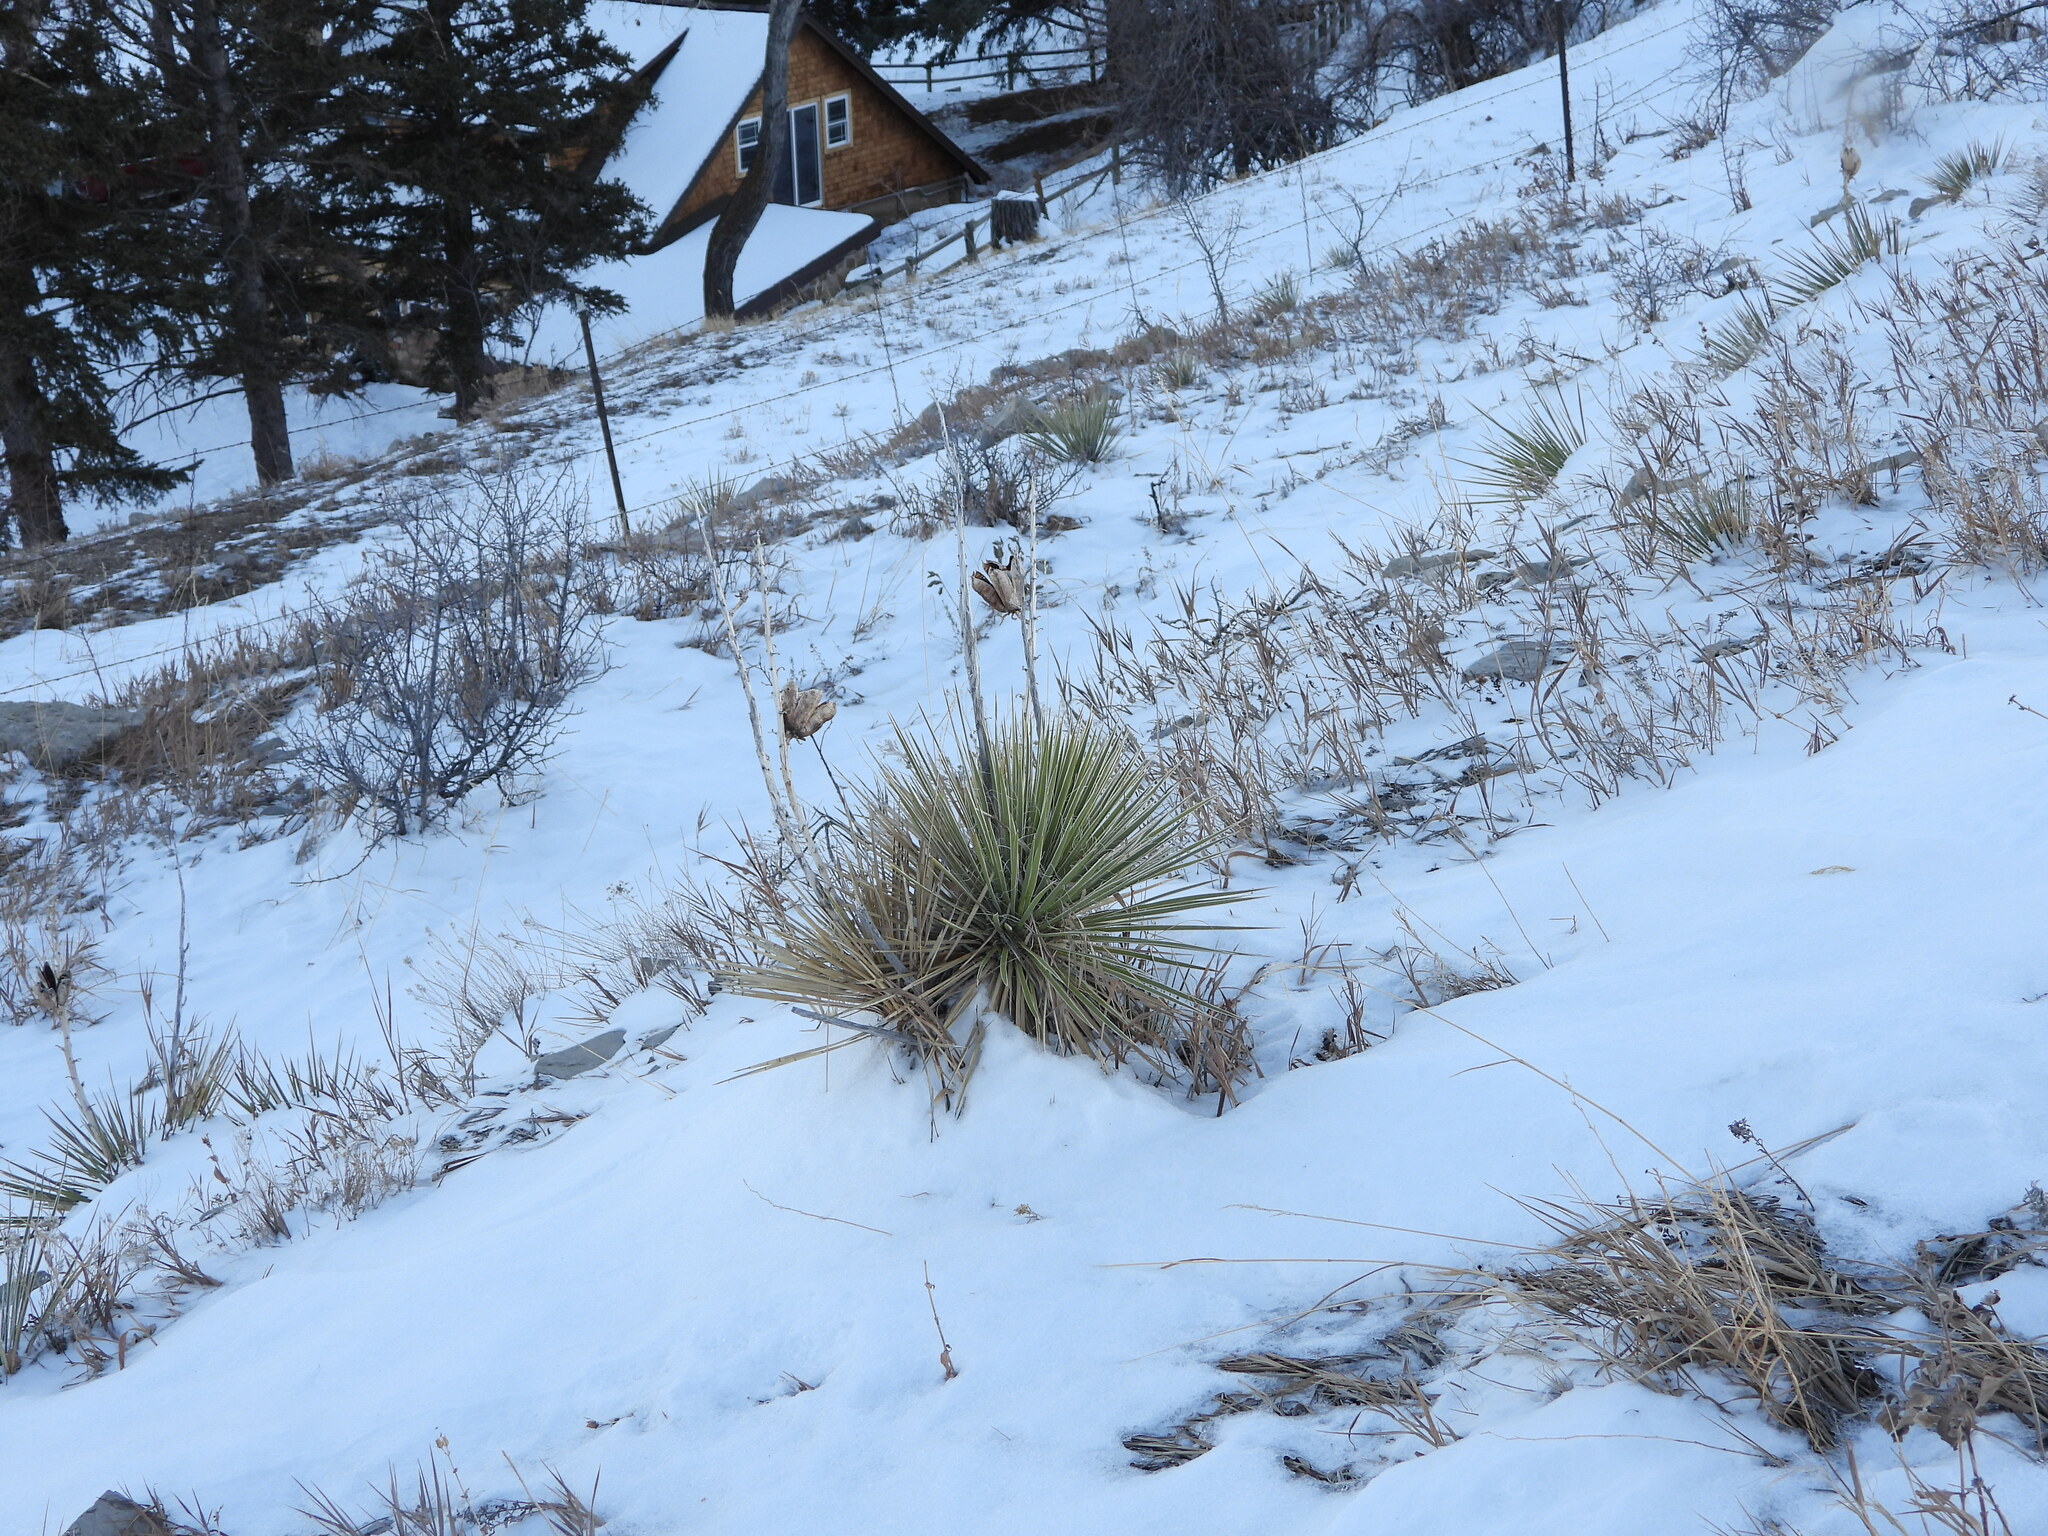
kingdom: Plantae
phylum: Tracheophyta
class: Liliopsida
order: Asparagales
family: Asparagaceae
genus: Yucca
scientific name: Yucca glauca
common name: Great plains yucca
